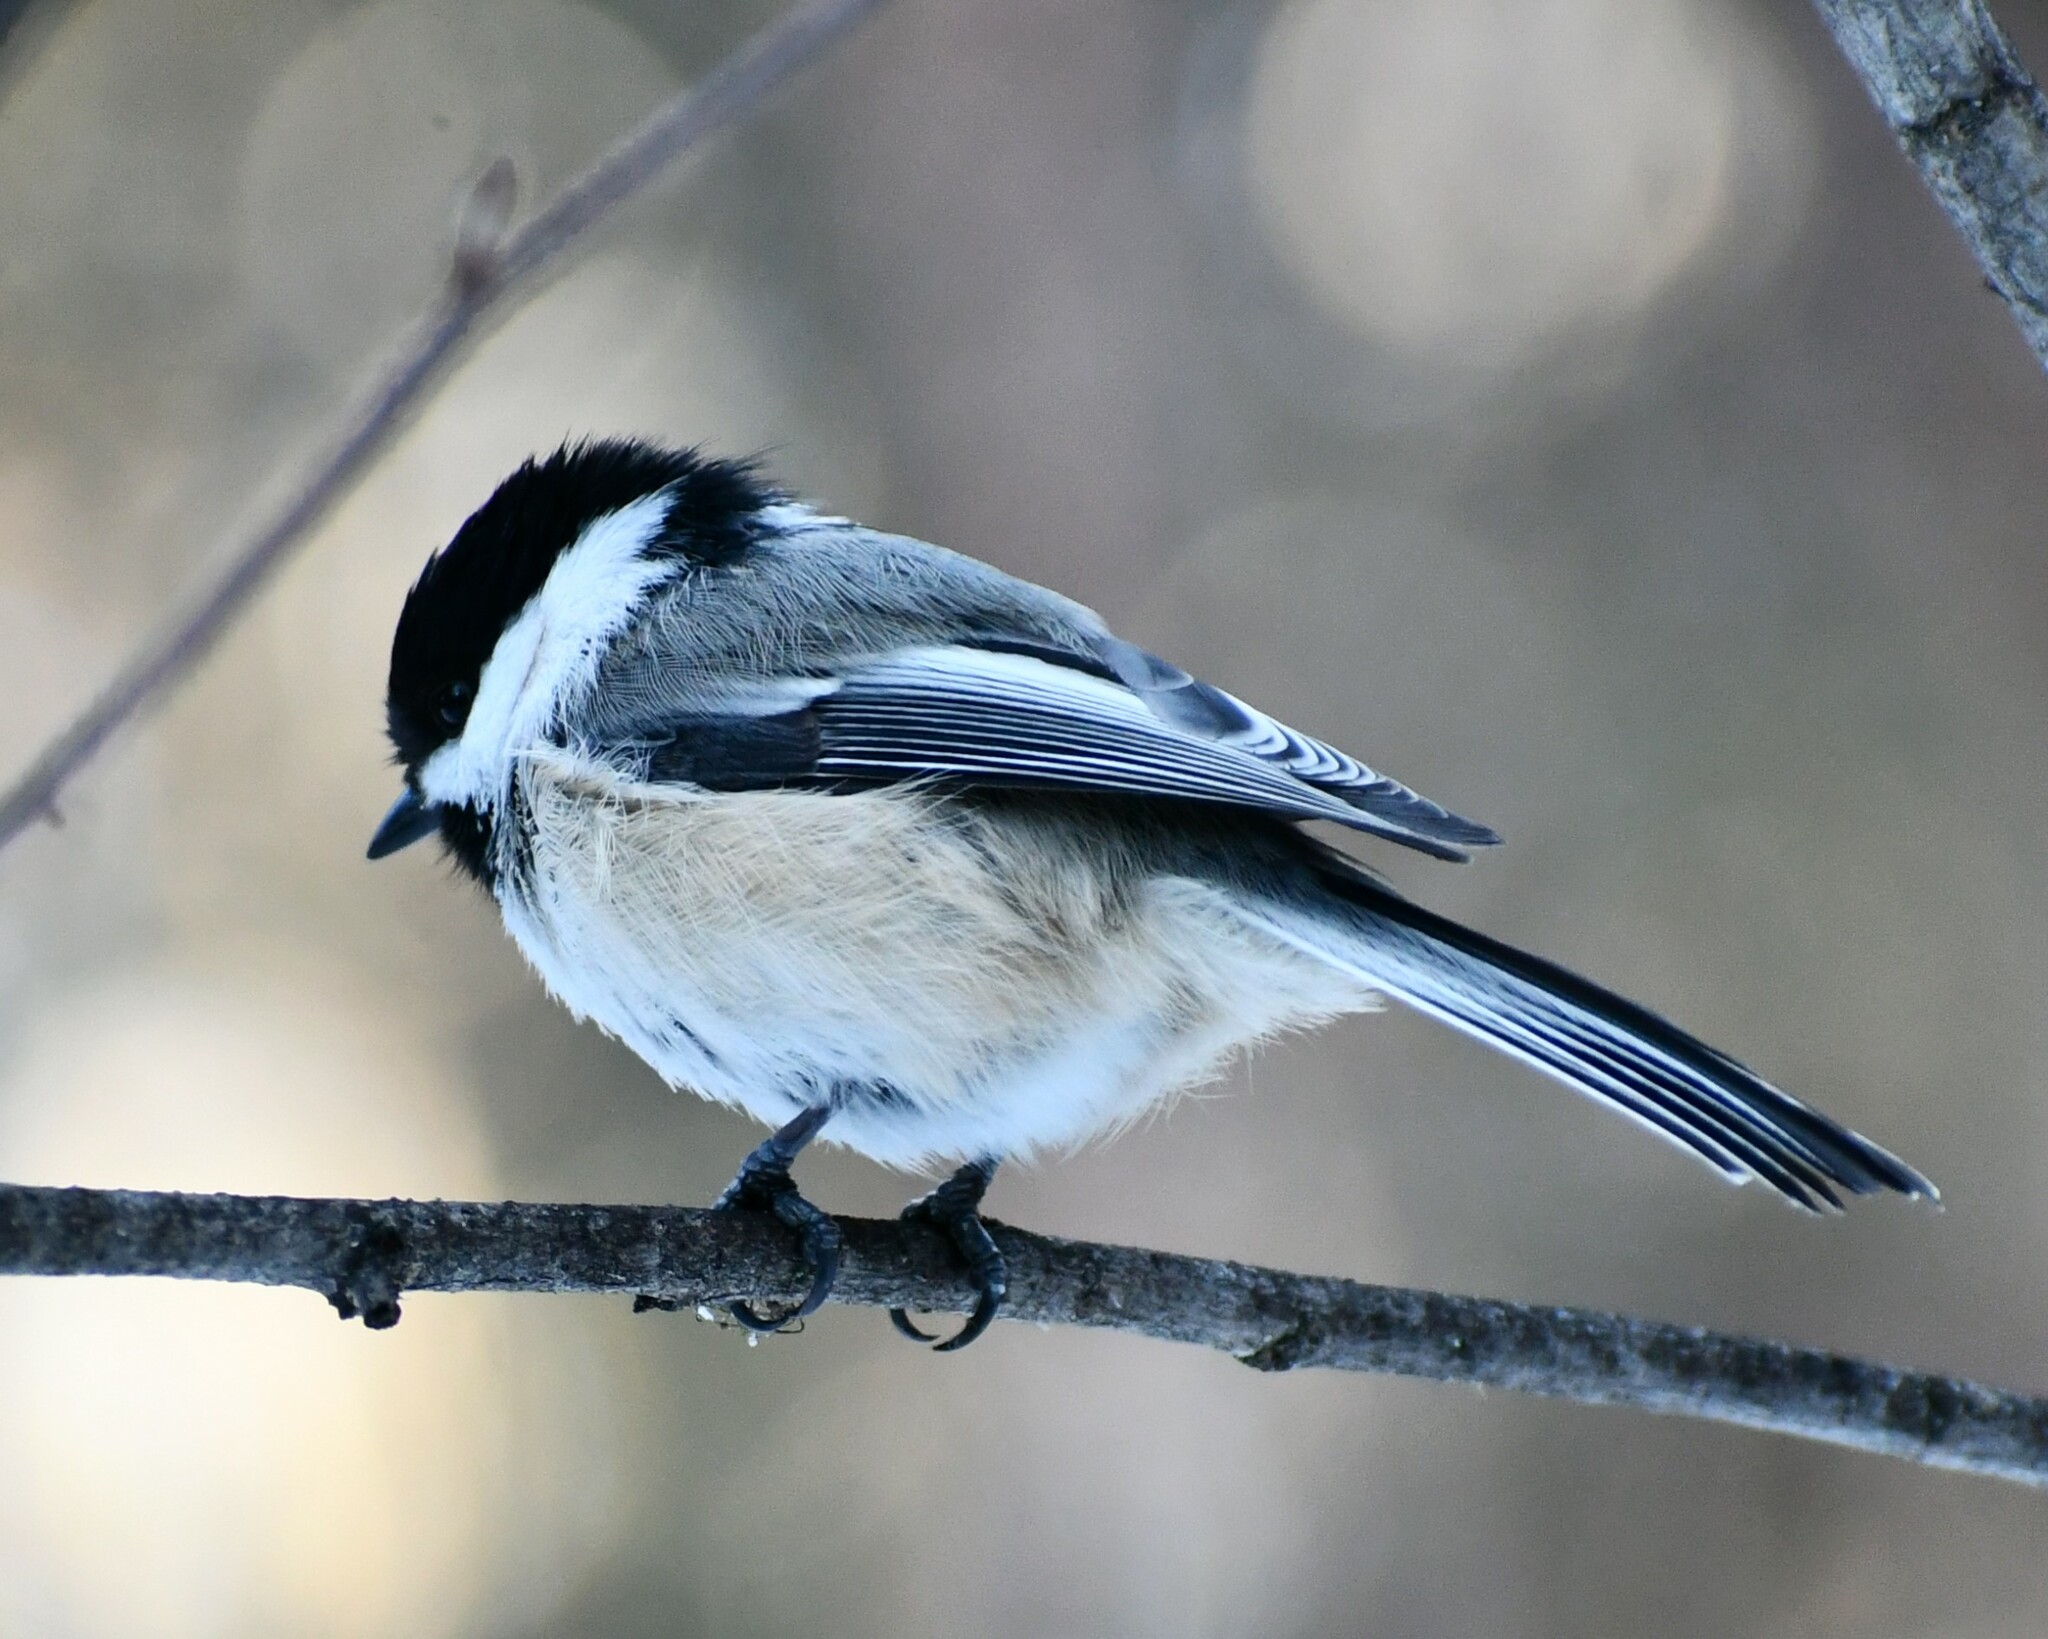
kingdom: Animalia
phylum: Chordata
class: Aves
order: Passeriformes
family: Paridae
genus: Poecile
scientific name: Poecile atricapillus
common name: Black-capped chickadee
